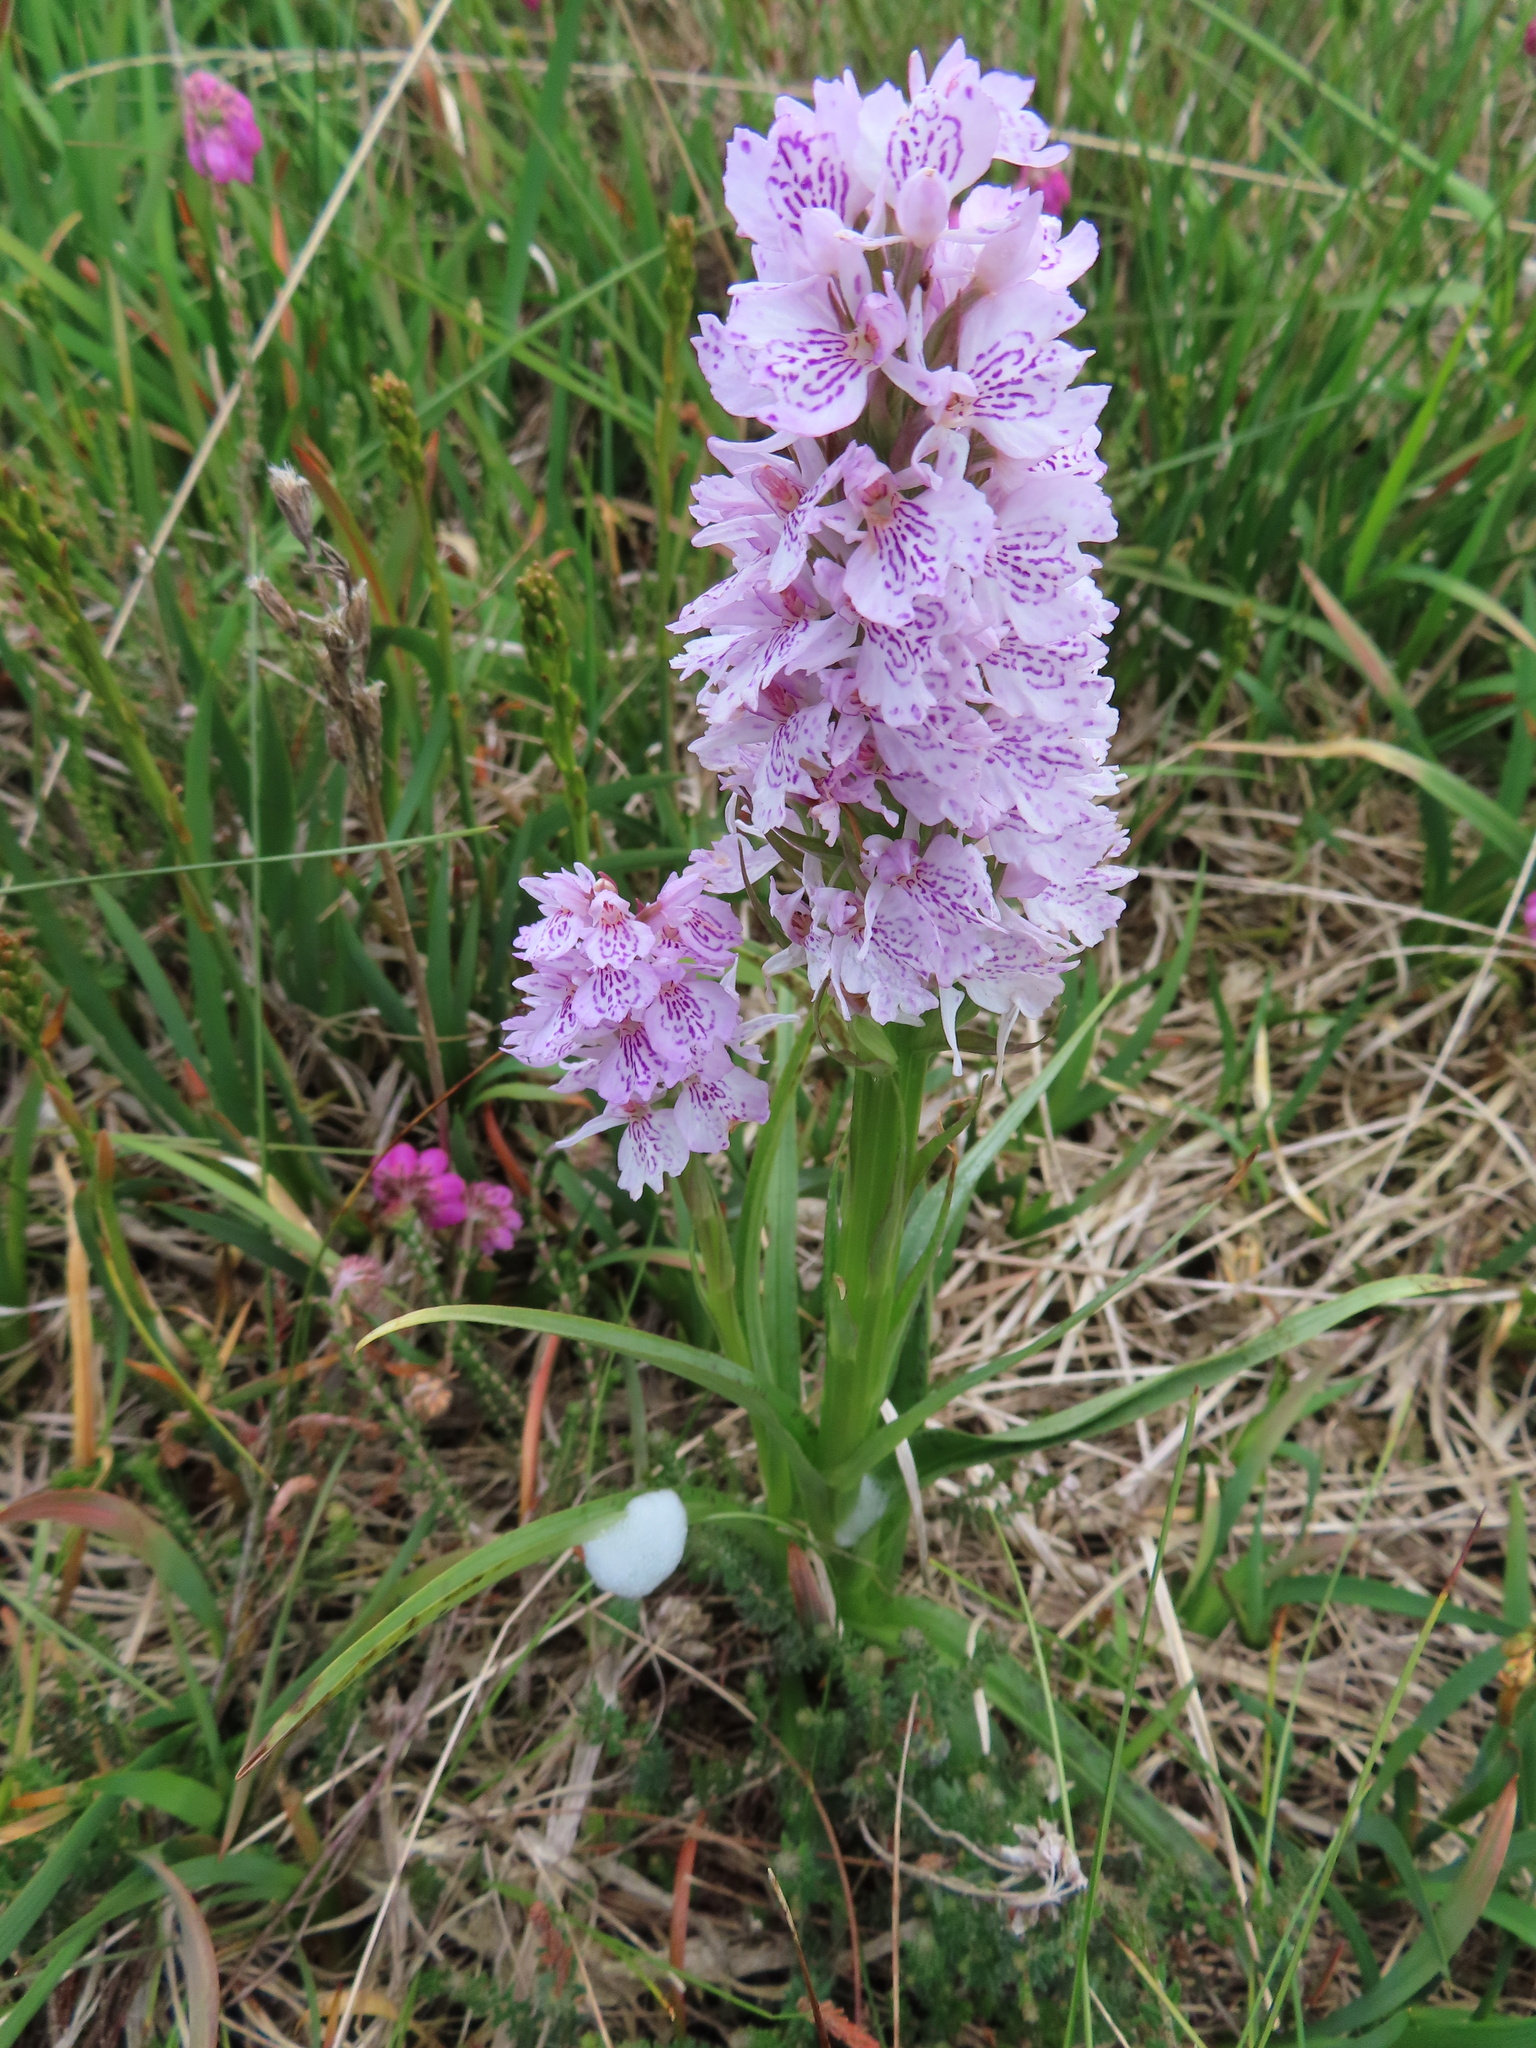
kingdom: Plantae
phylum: Tracheophyta
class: Liliopsida
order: Asparagales
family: Orchidaceae
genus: Dactylorhiza
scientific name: Dactylorhiza maculata
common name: Heath spotted-orchid
